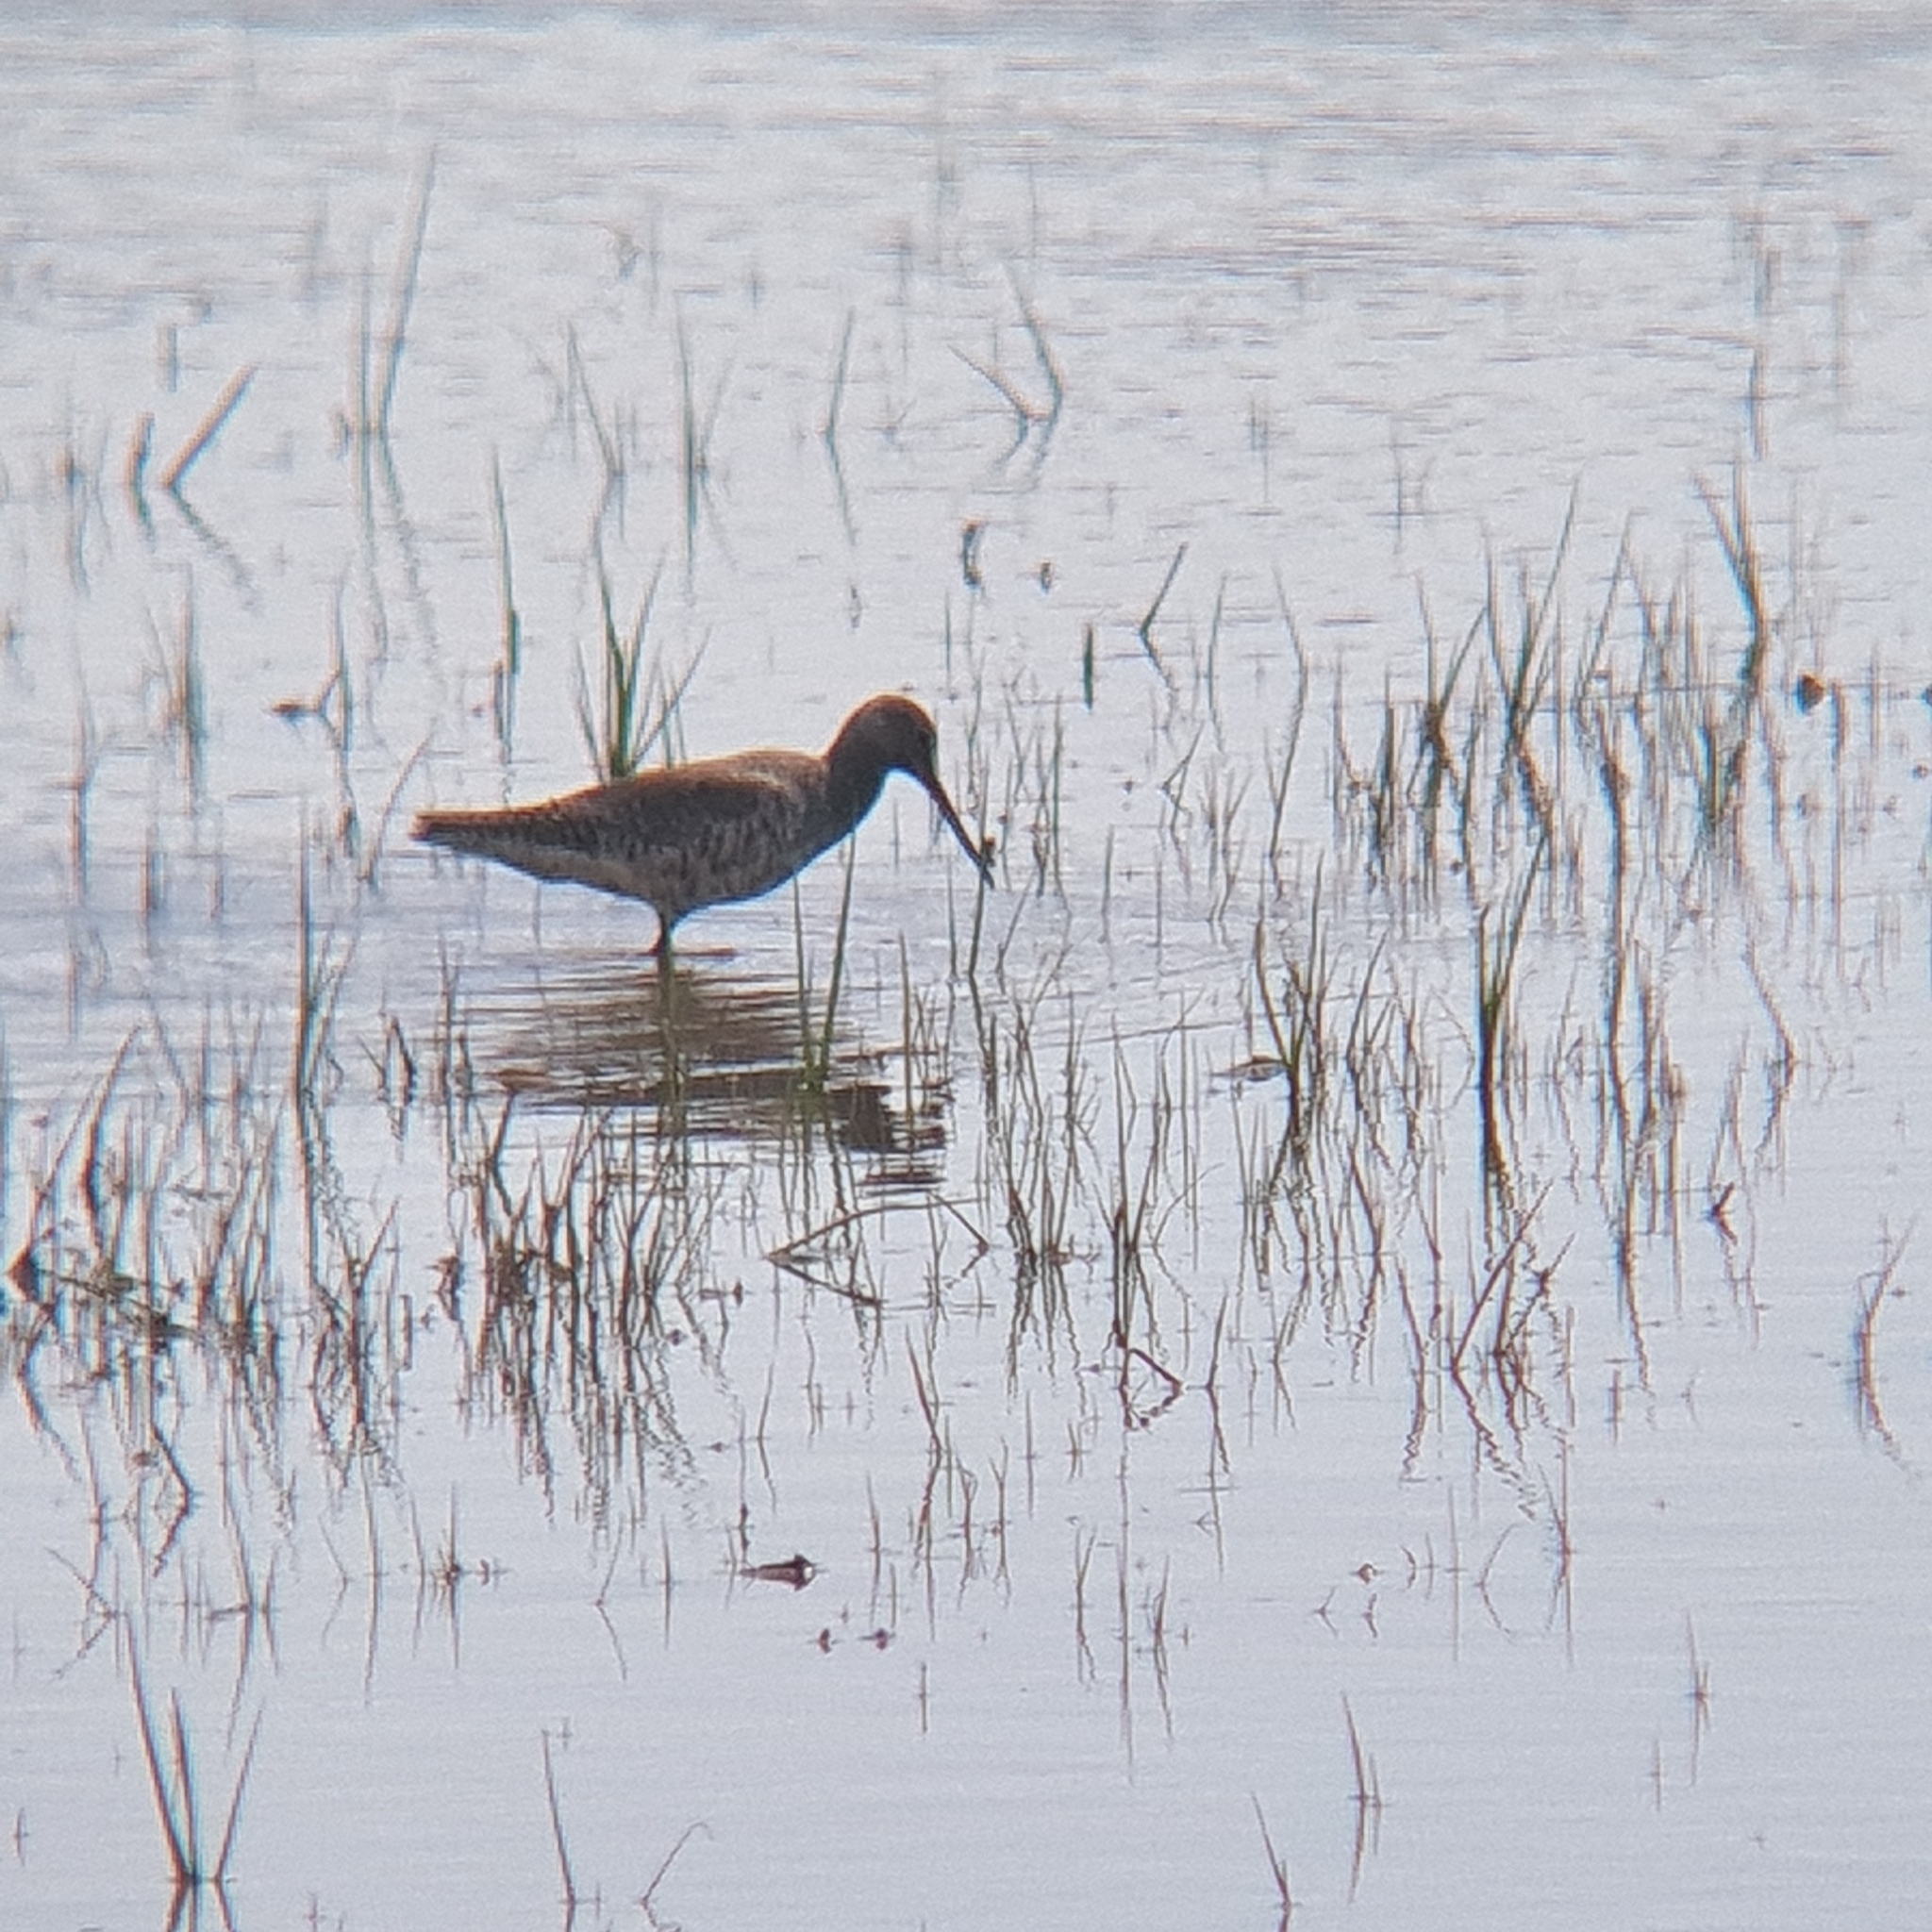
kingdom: Animalia
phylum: Chordata
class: Aves
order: Charadriiformes
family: Scolopacidae
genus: Tringa
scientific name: Tringa erythropus
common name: Spotted redshank
